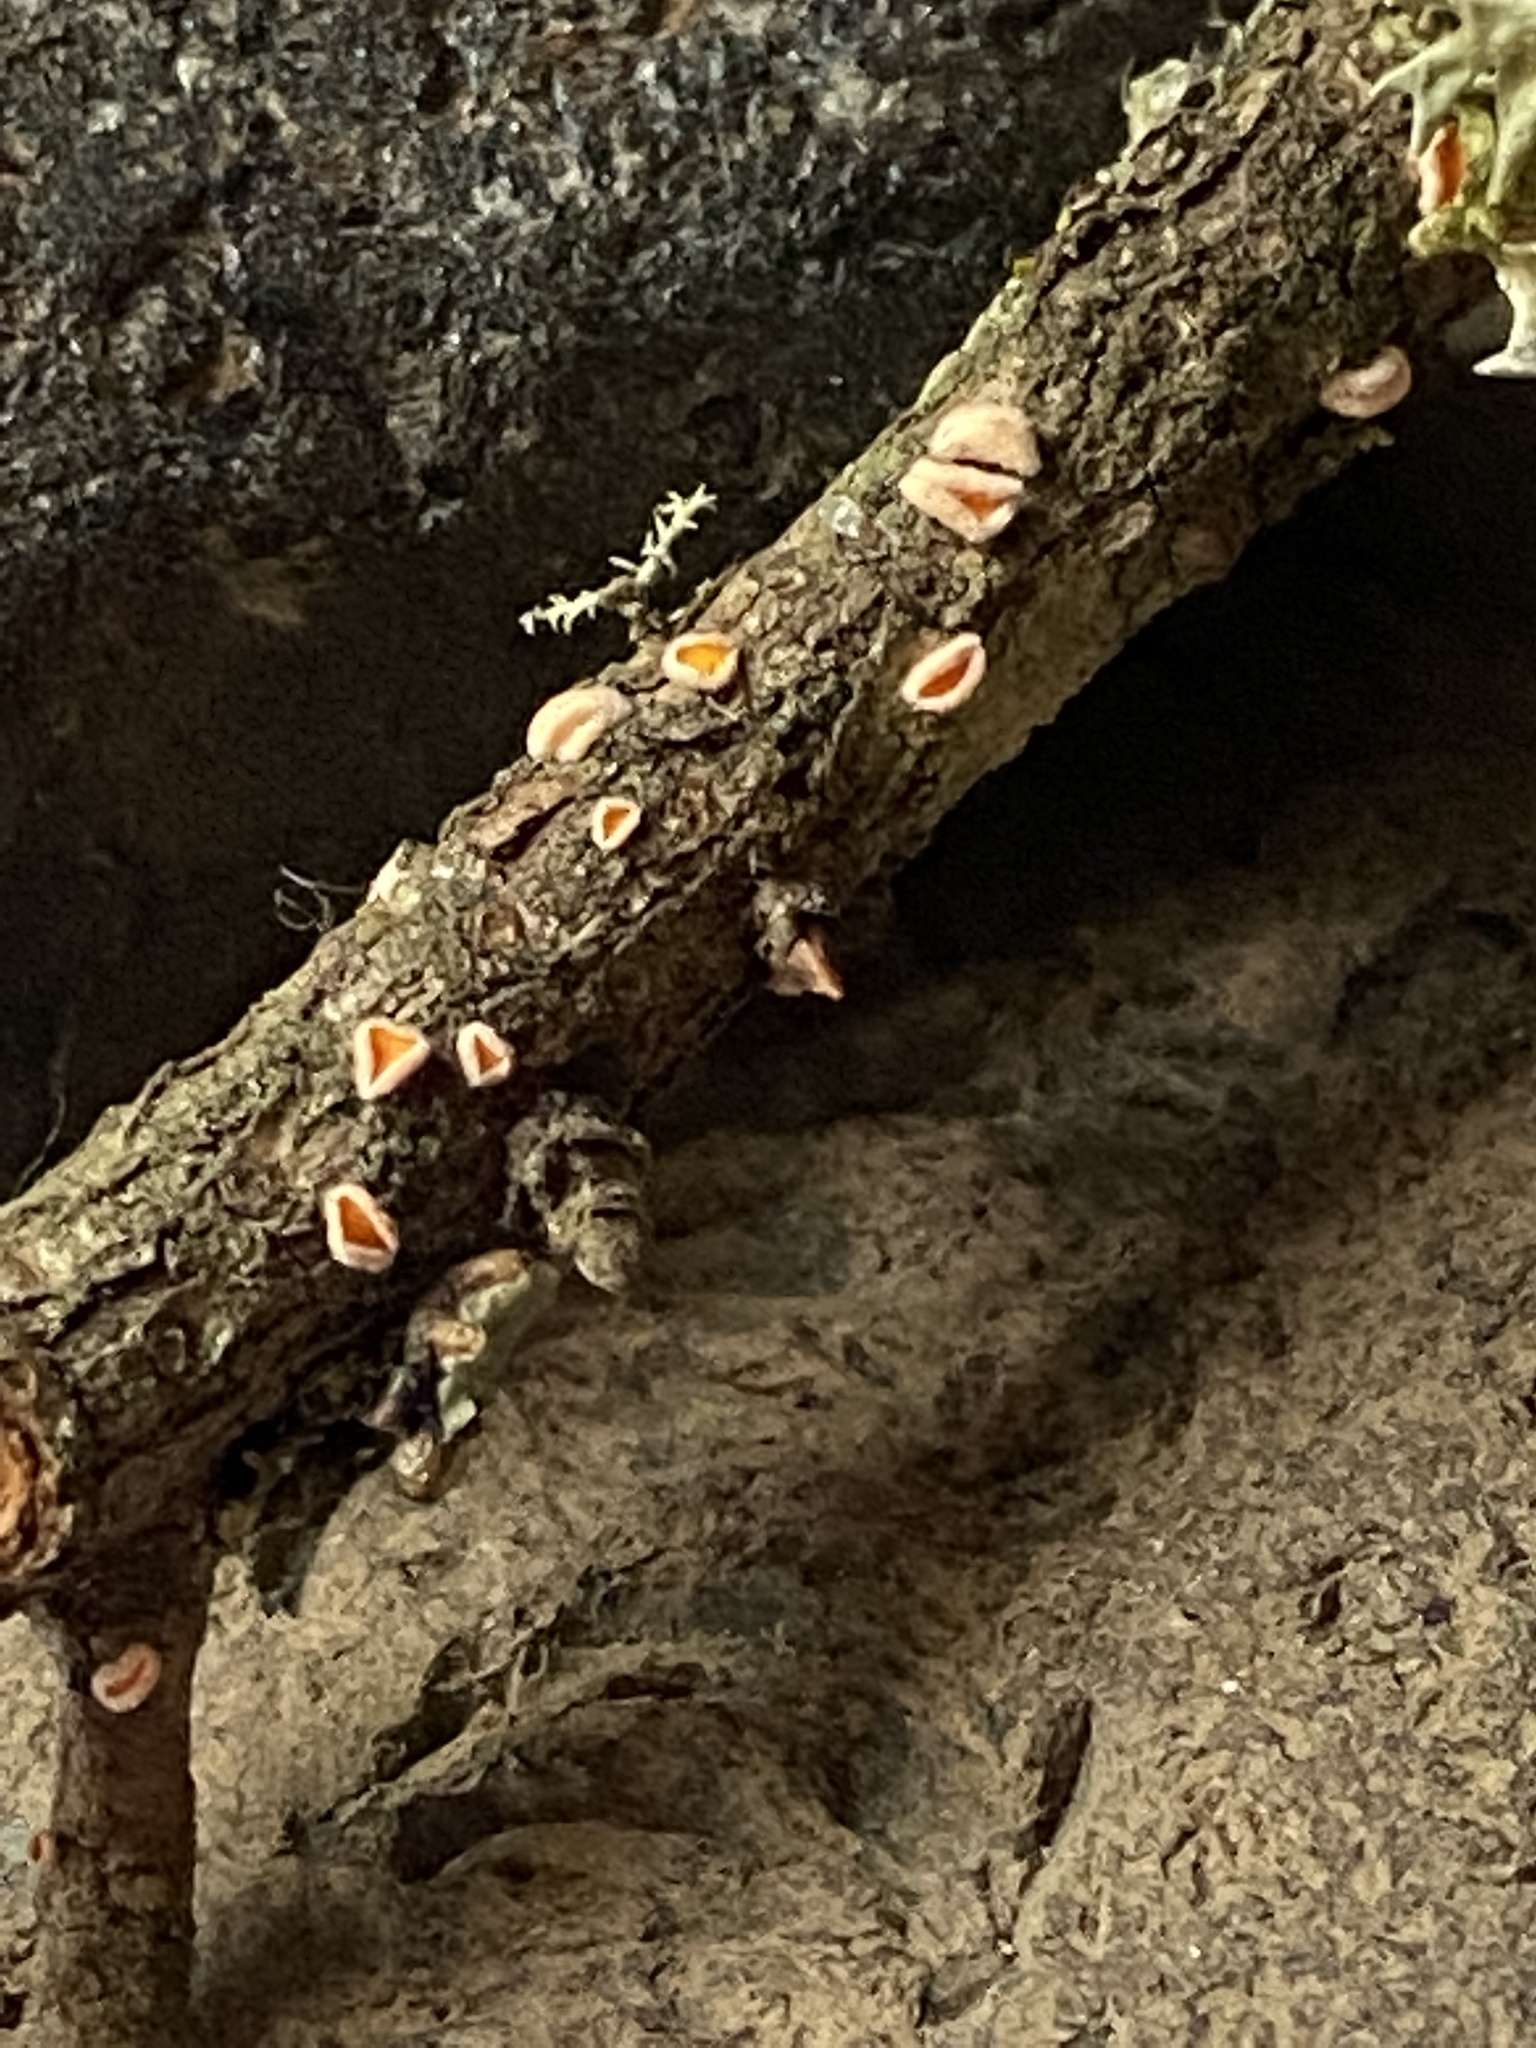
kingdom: Fungi
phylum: Ascomycota
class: Leotiomycetes
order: Helotiales
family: Lachnaceae
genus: Lachnellula
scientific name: Lachnellula calyciformis
